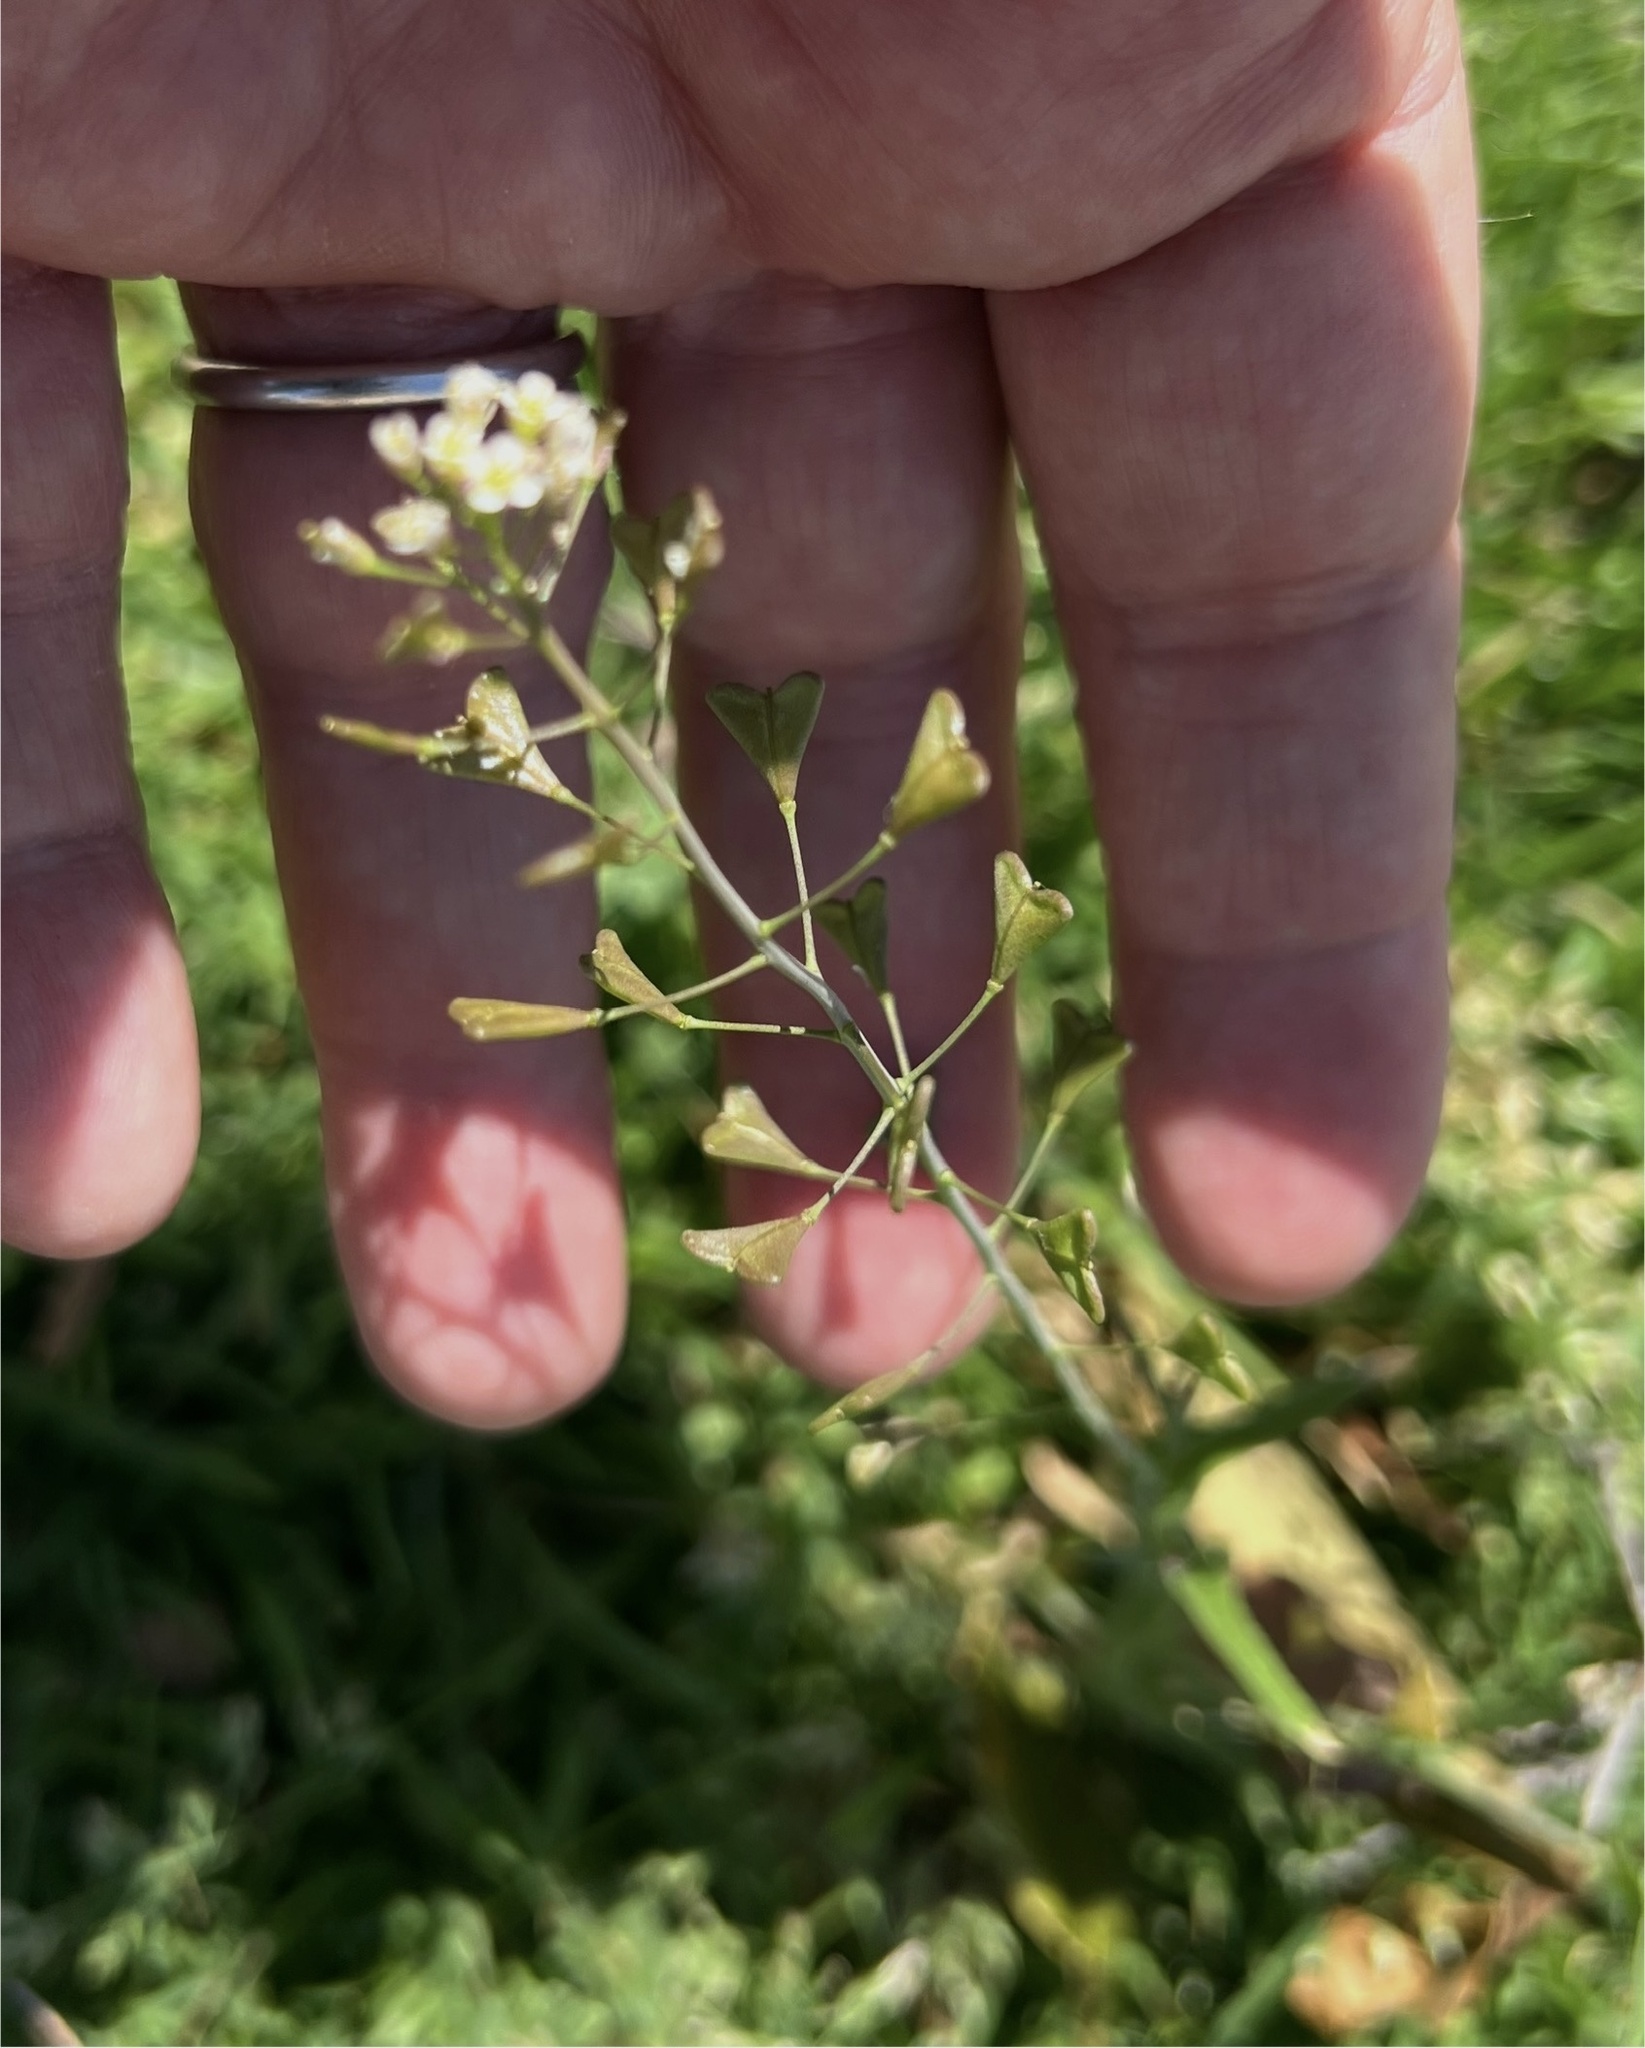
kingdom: Plantae
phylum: Tracheophyta
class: Magnoliopsida
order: Brassicales
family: Brassicaceae
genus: Capsella
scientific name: Capsella bursa-pastoris
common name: Shepherd's purse
